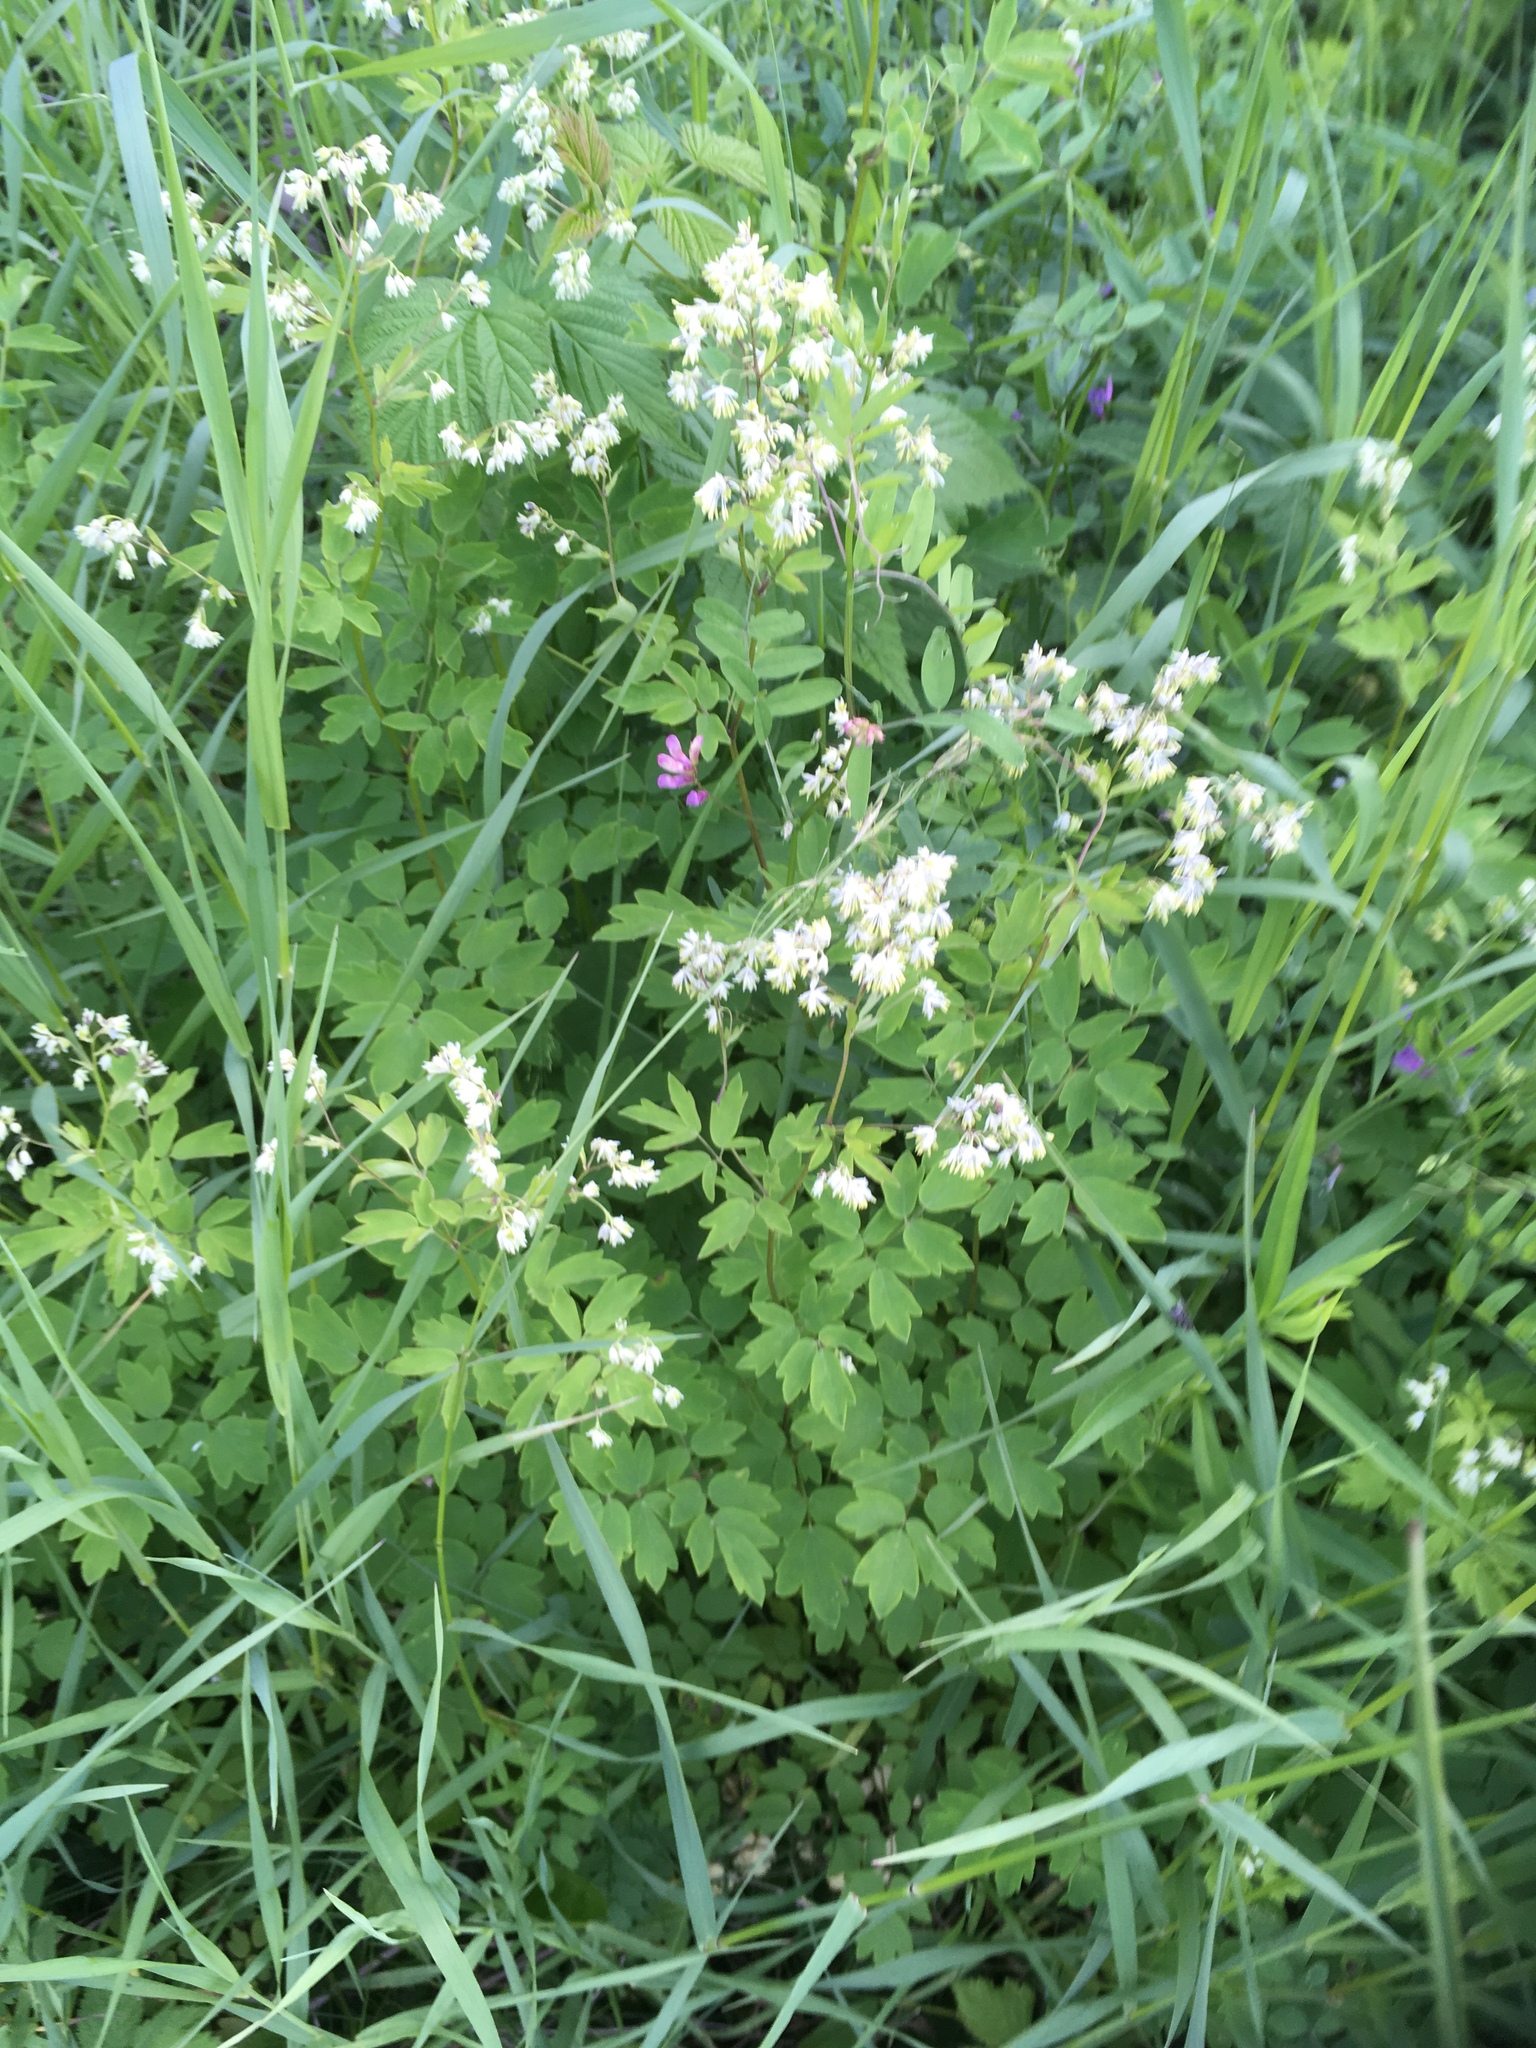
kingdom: Plantae
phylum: Tracheophyta
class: Magnoliopsida
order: Ranunculales
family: Ranunculaceae
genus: Thalictrum
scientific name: Thalictrum dasycarpum
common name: Purple meadow-rue
